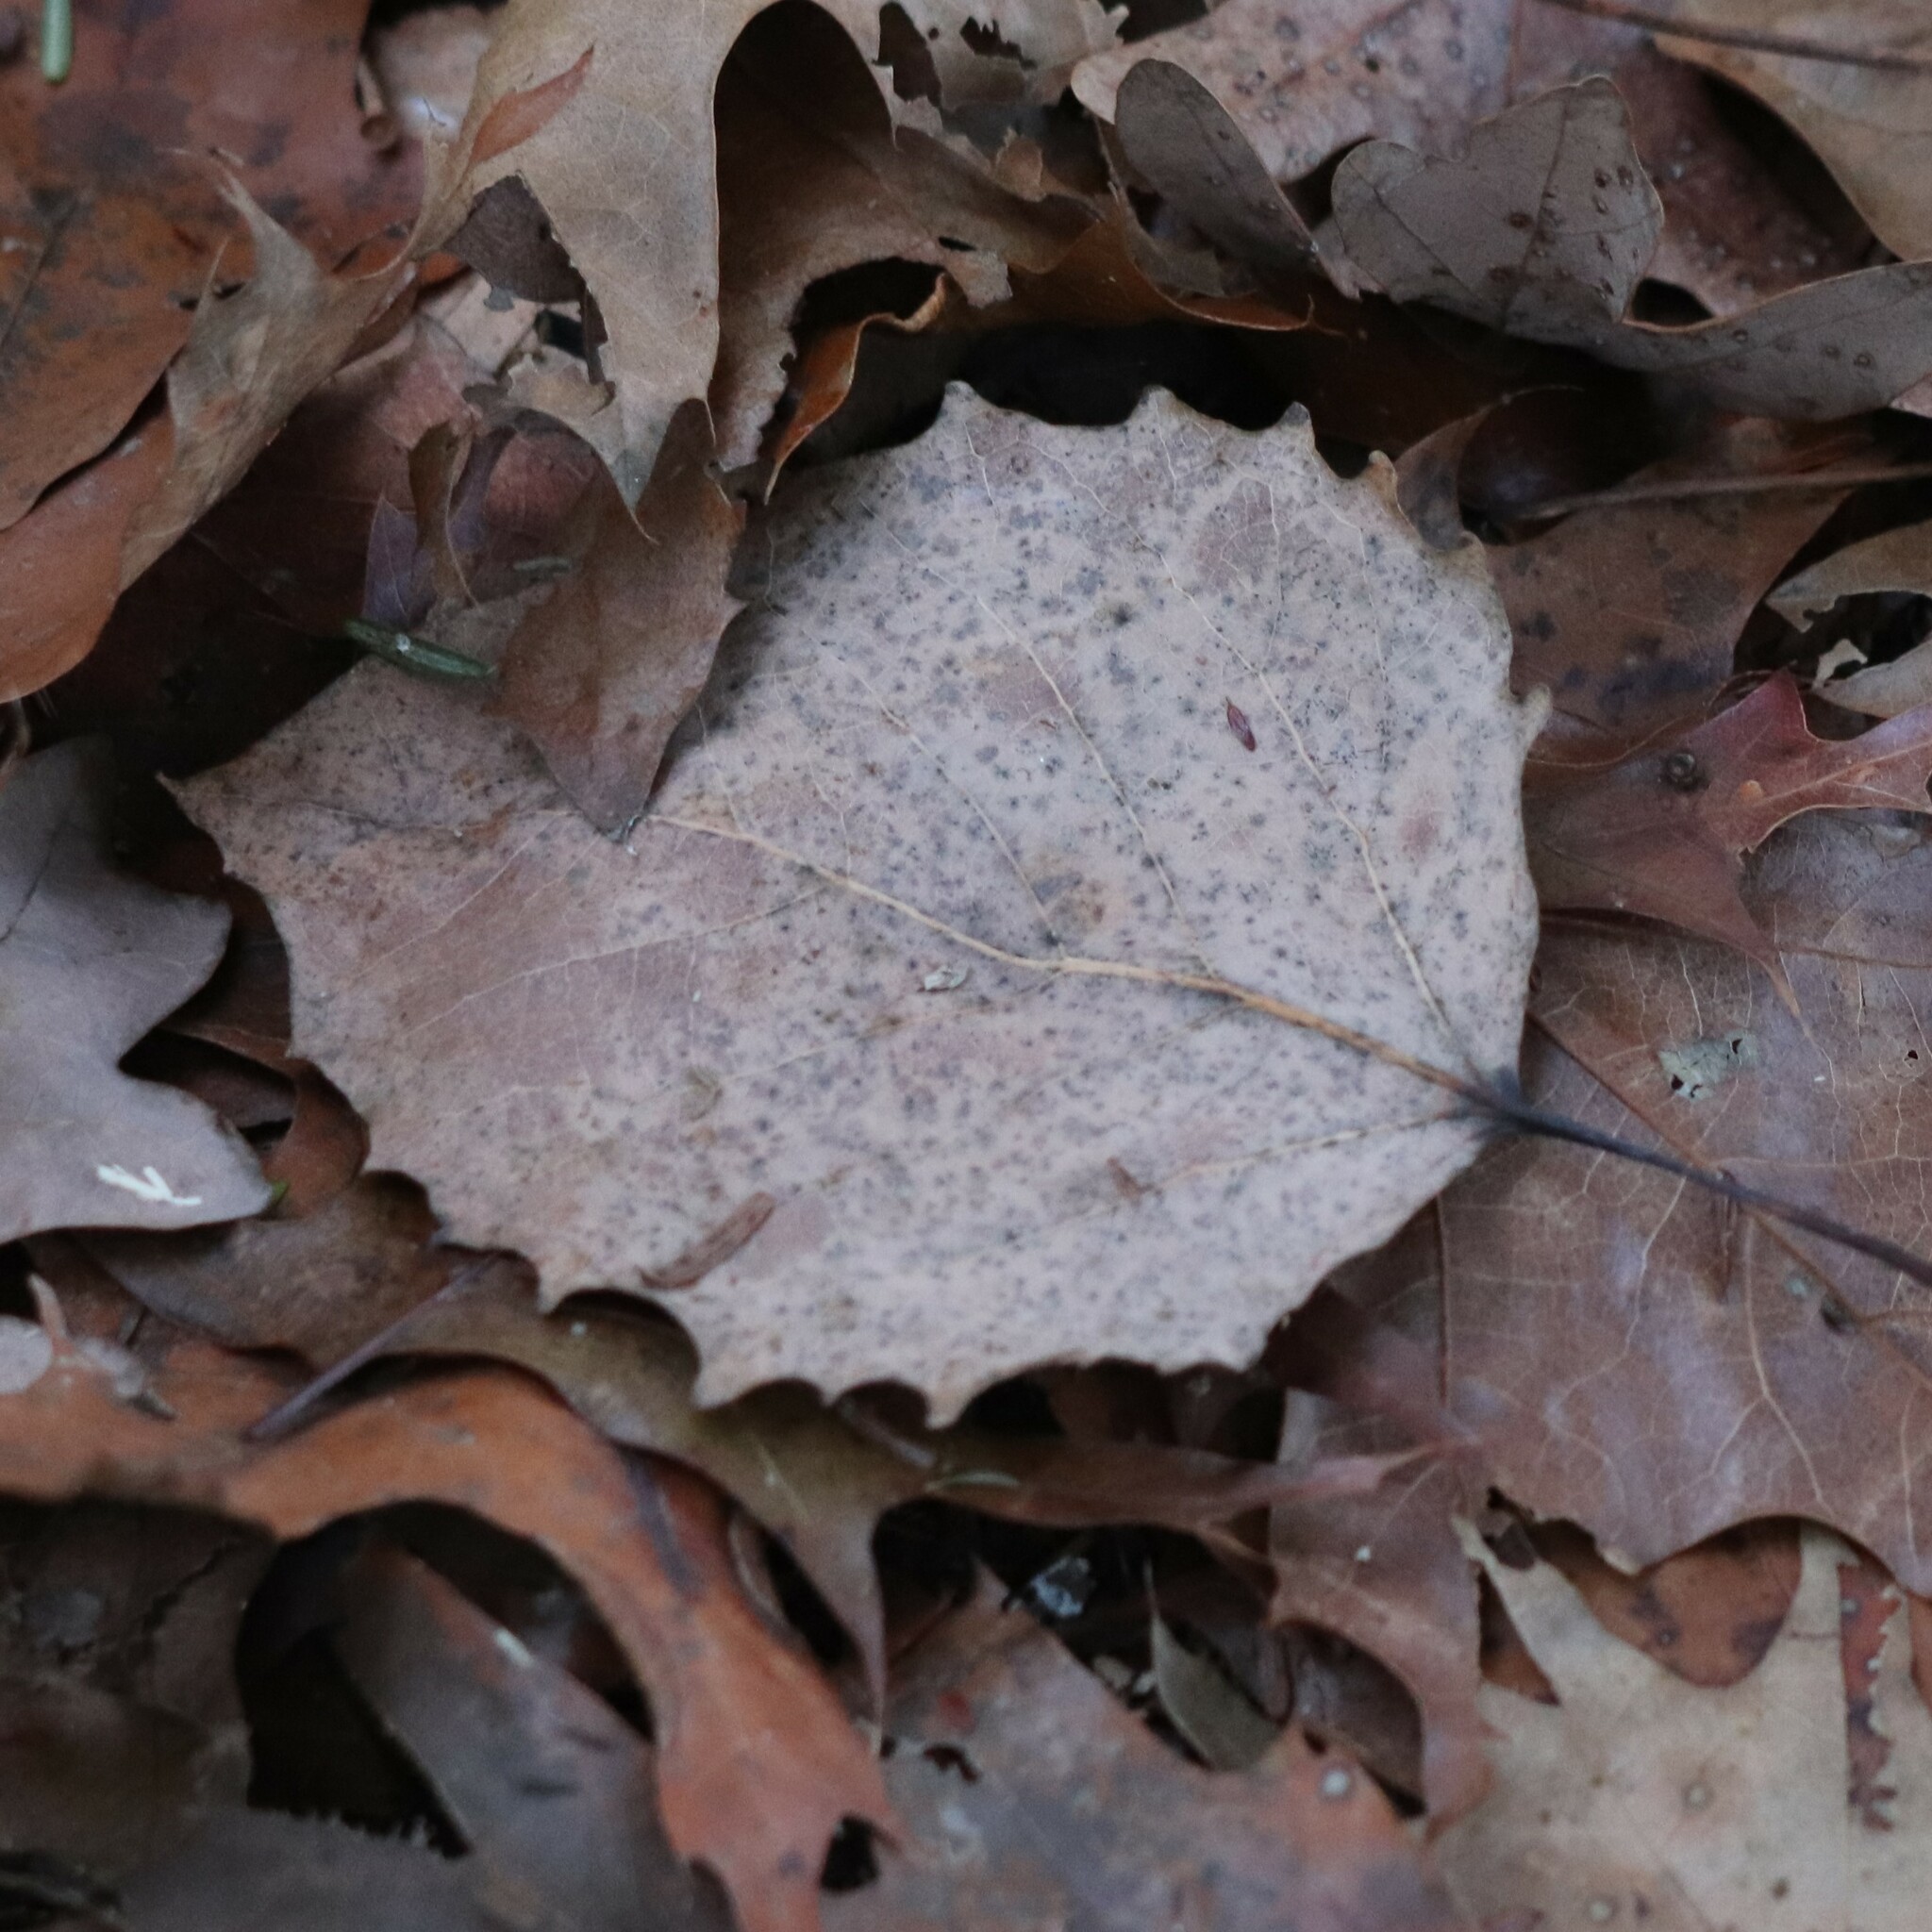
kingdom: Plantae
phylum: Tracheophyta
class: Magnoliopsida
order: Malpighiales
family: Salicaceae
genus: Populus
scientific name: Populus grandidentata
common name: Bigtooth aspen
